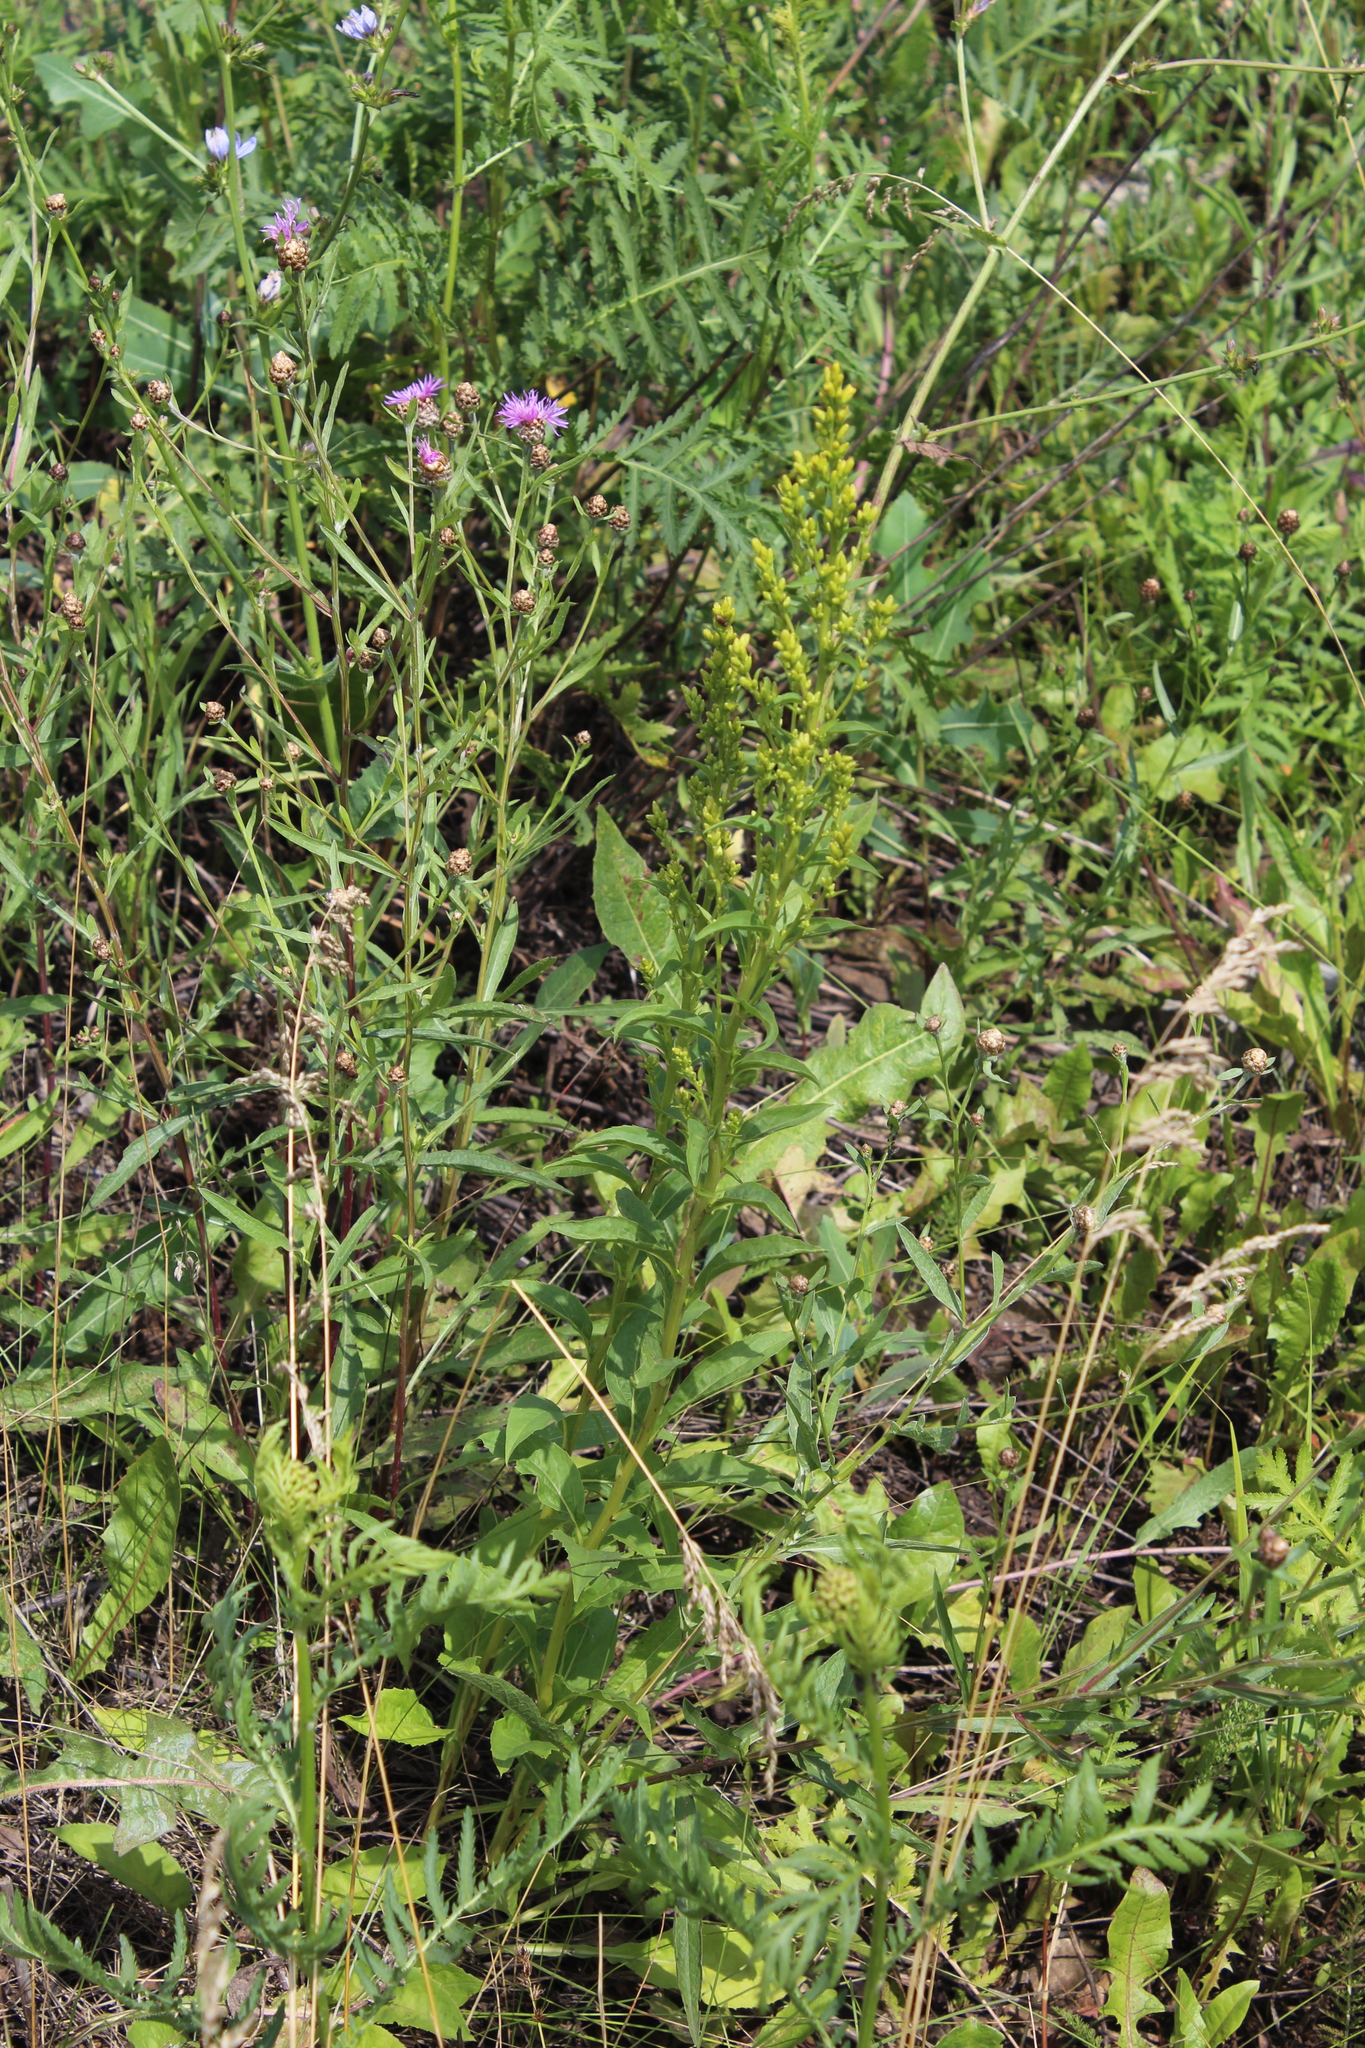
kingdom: Plantae
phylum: Tracheophyta
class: Magnoliopsida
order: Asterales
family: Asteraceae
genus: Solidago
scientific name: Solidago virgaurea
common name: Goldenrod
